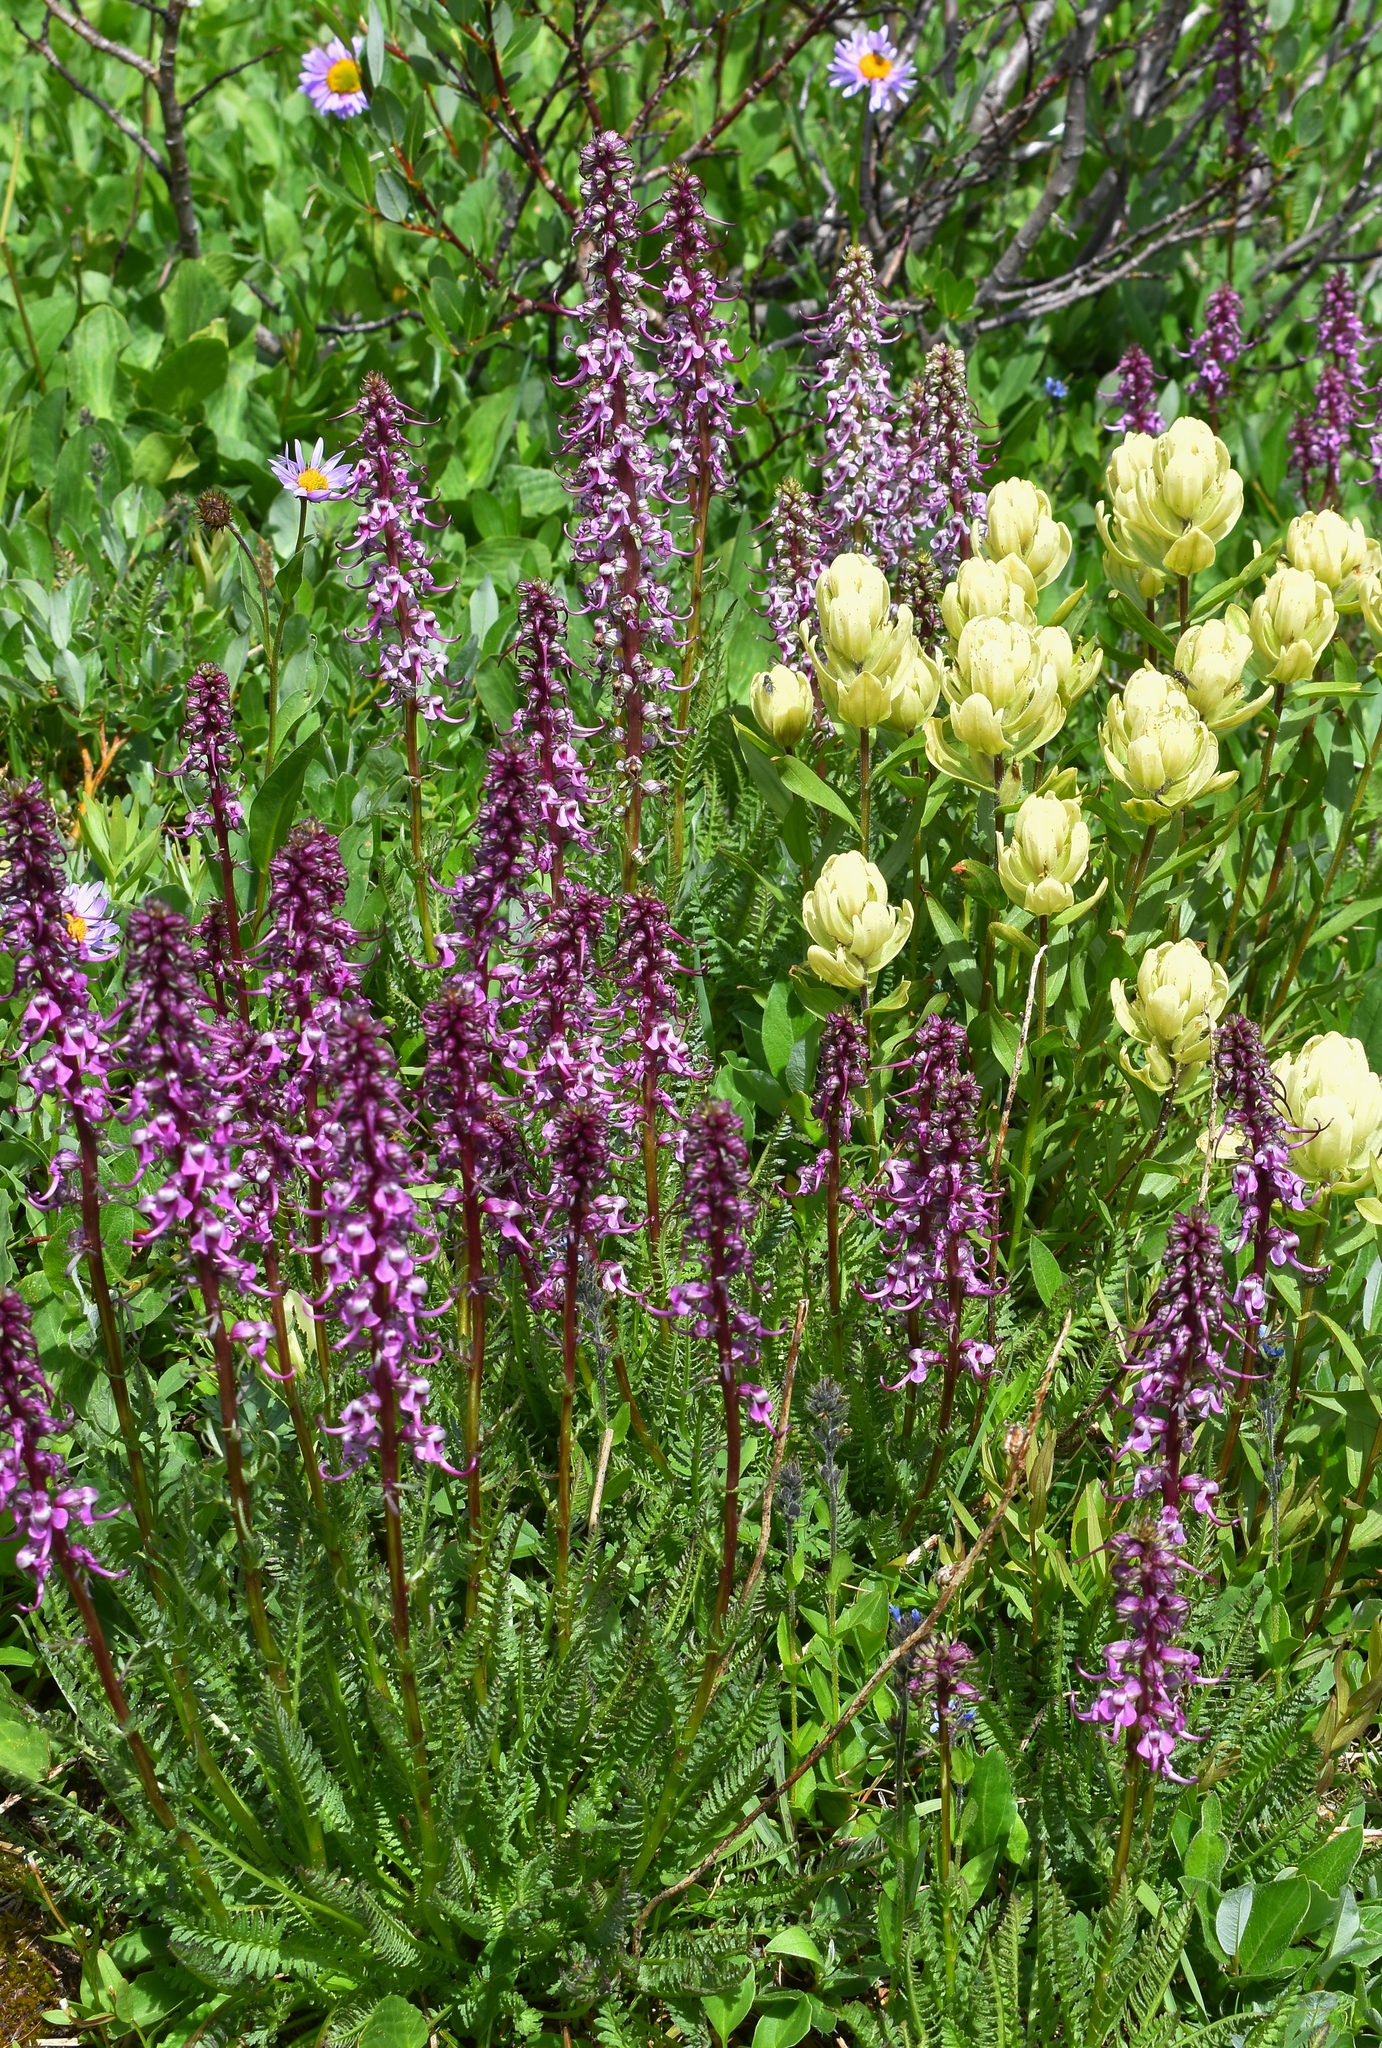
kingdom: Plantae
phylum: Tracheophyta
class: Magnoliopsida
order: Lamiales
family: Orobanchaceae
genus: Pedicularis
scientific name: Pedicularis groenlandica
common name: Elephant's-head
